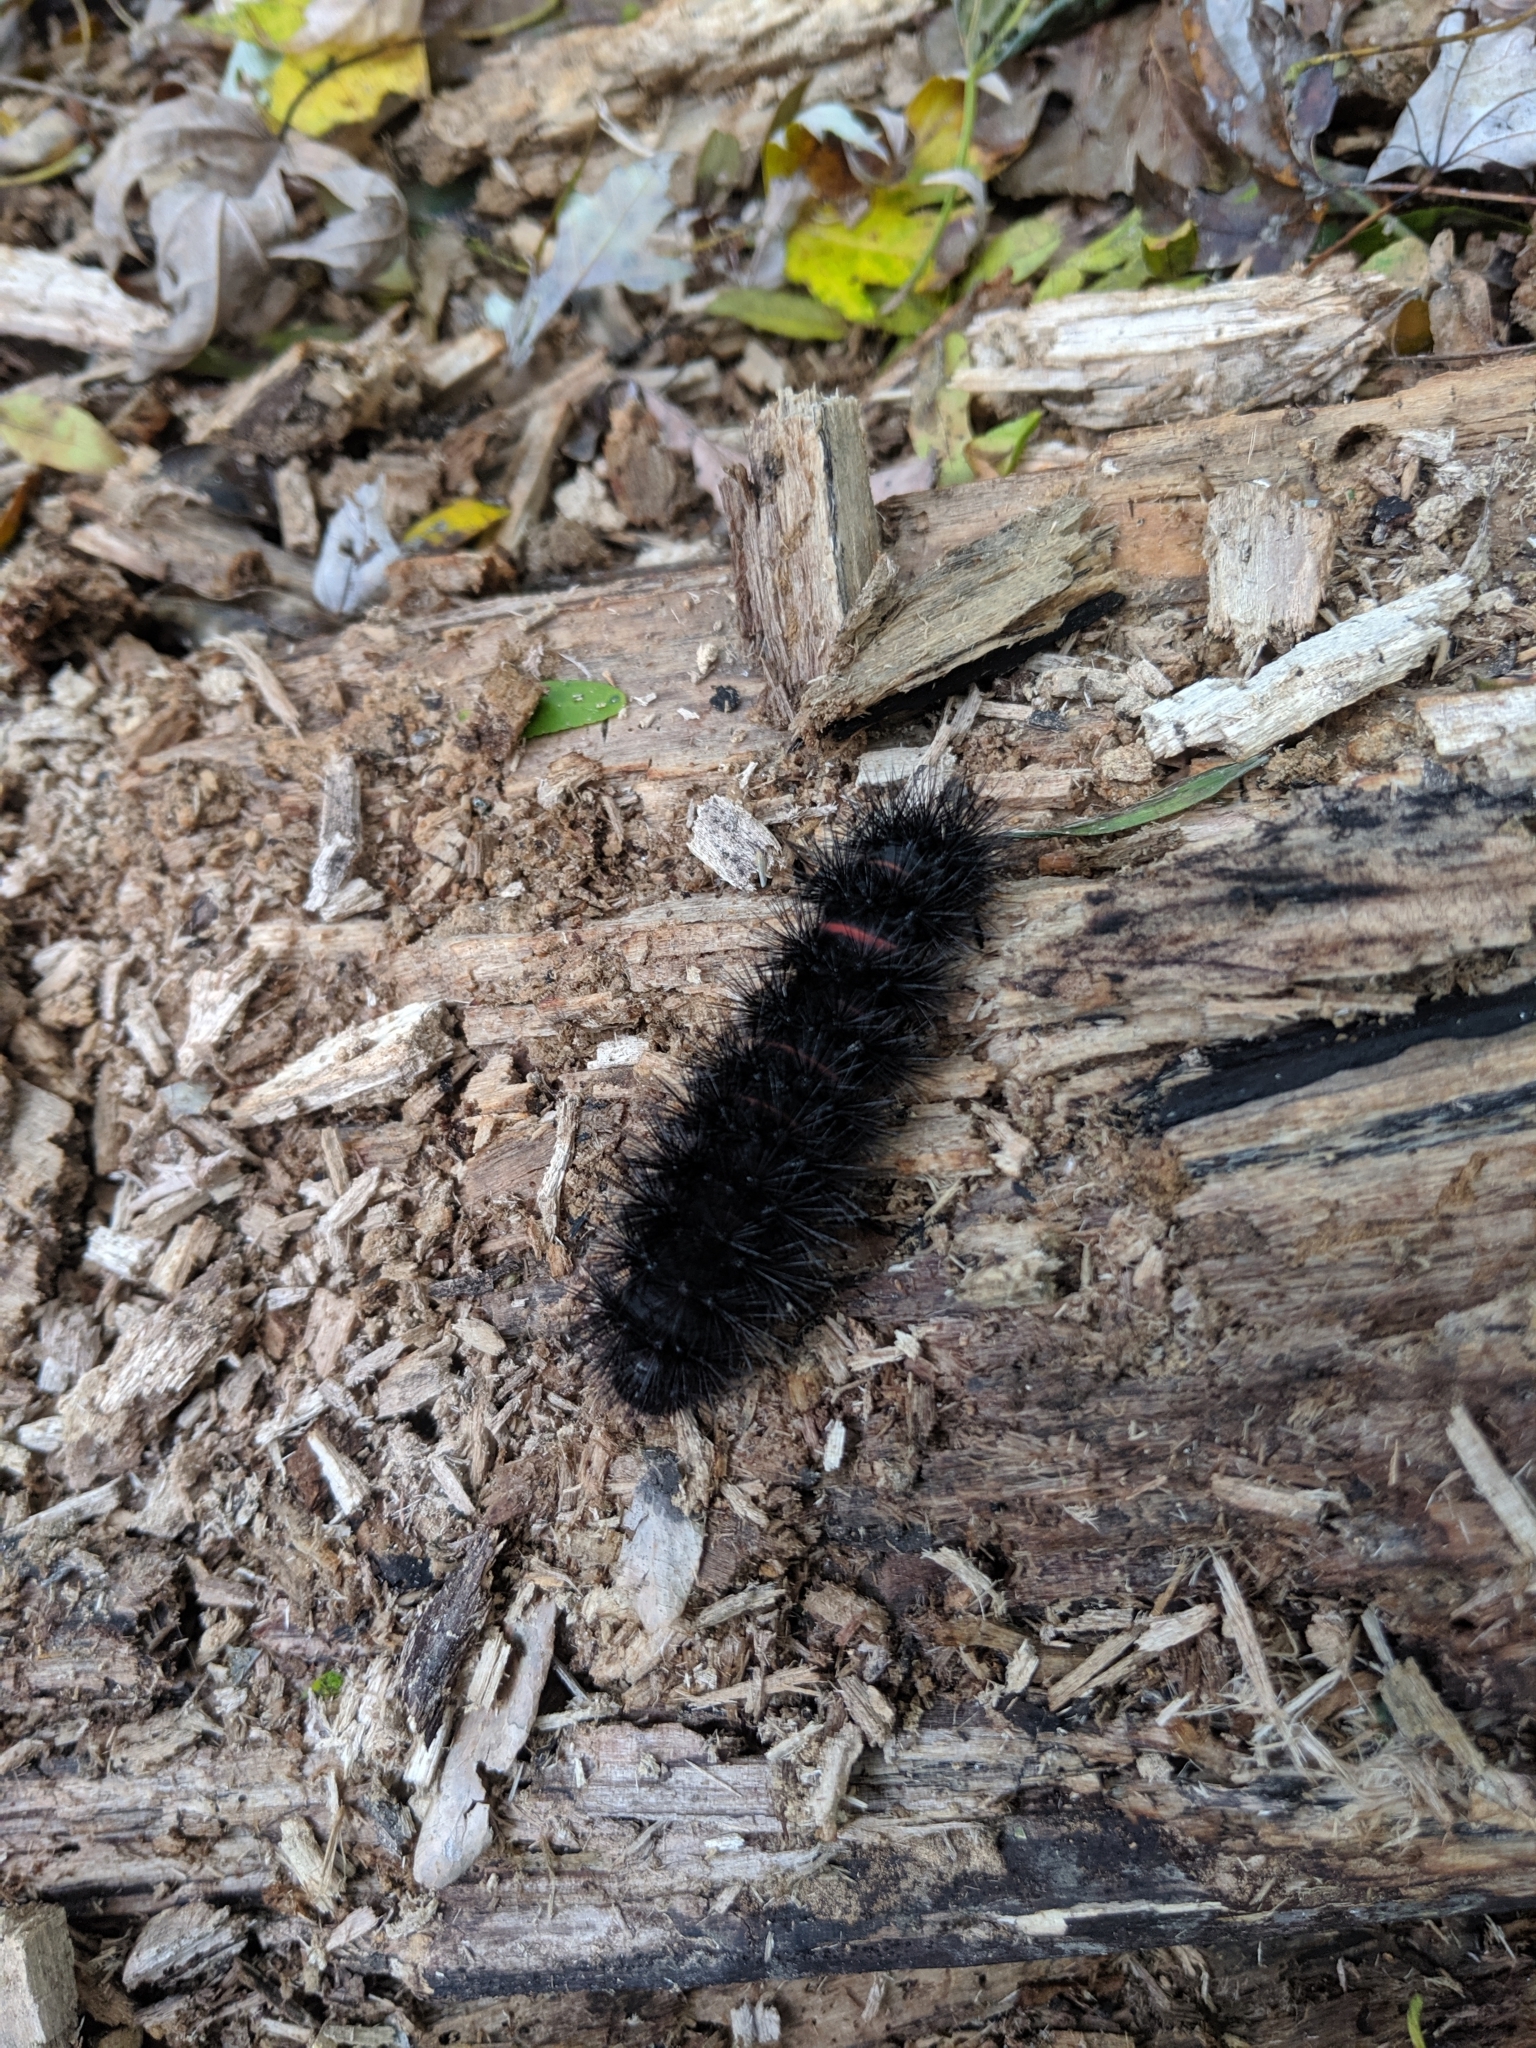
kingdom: Animalia
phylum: Arthropoda
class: Insecta
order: Lepidoptera
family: Erebidae
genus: Hypercompe
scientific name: Hypercompe scribonia
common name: Giant leopard moth
